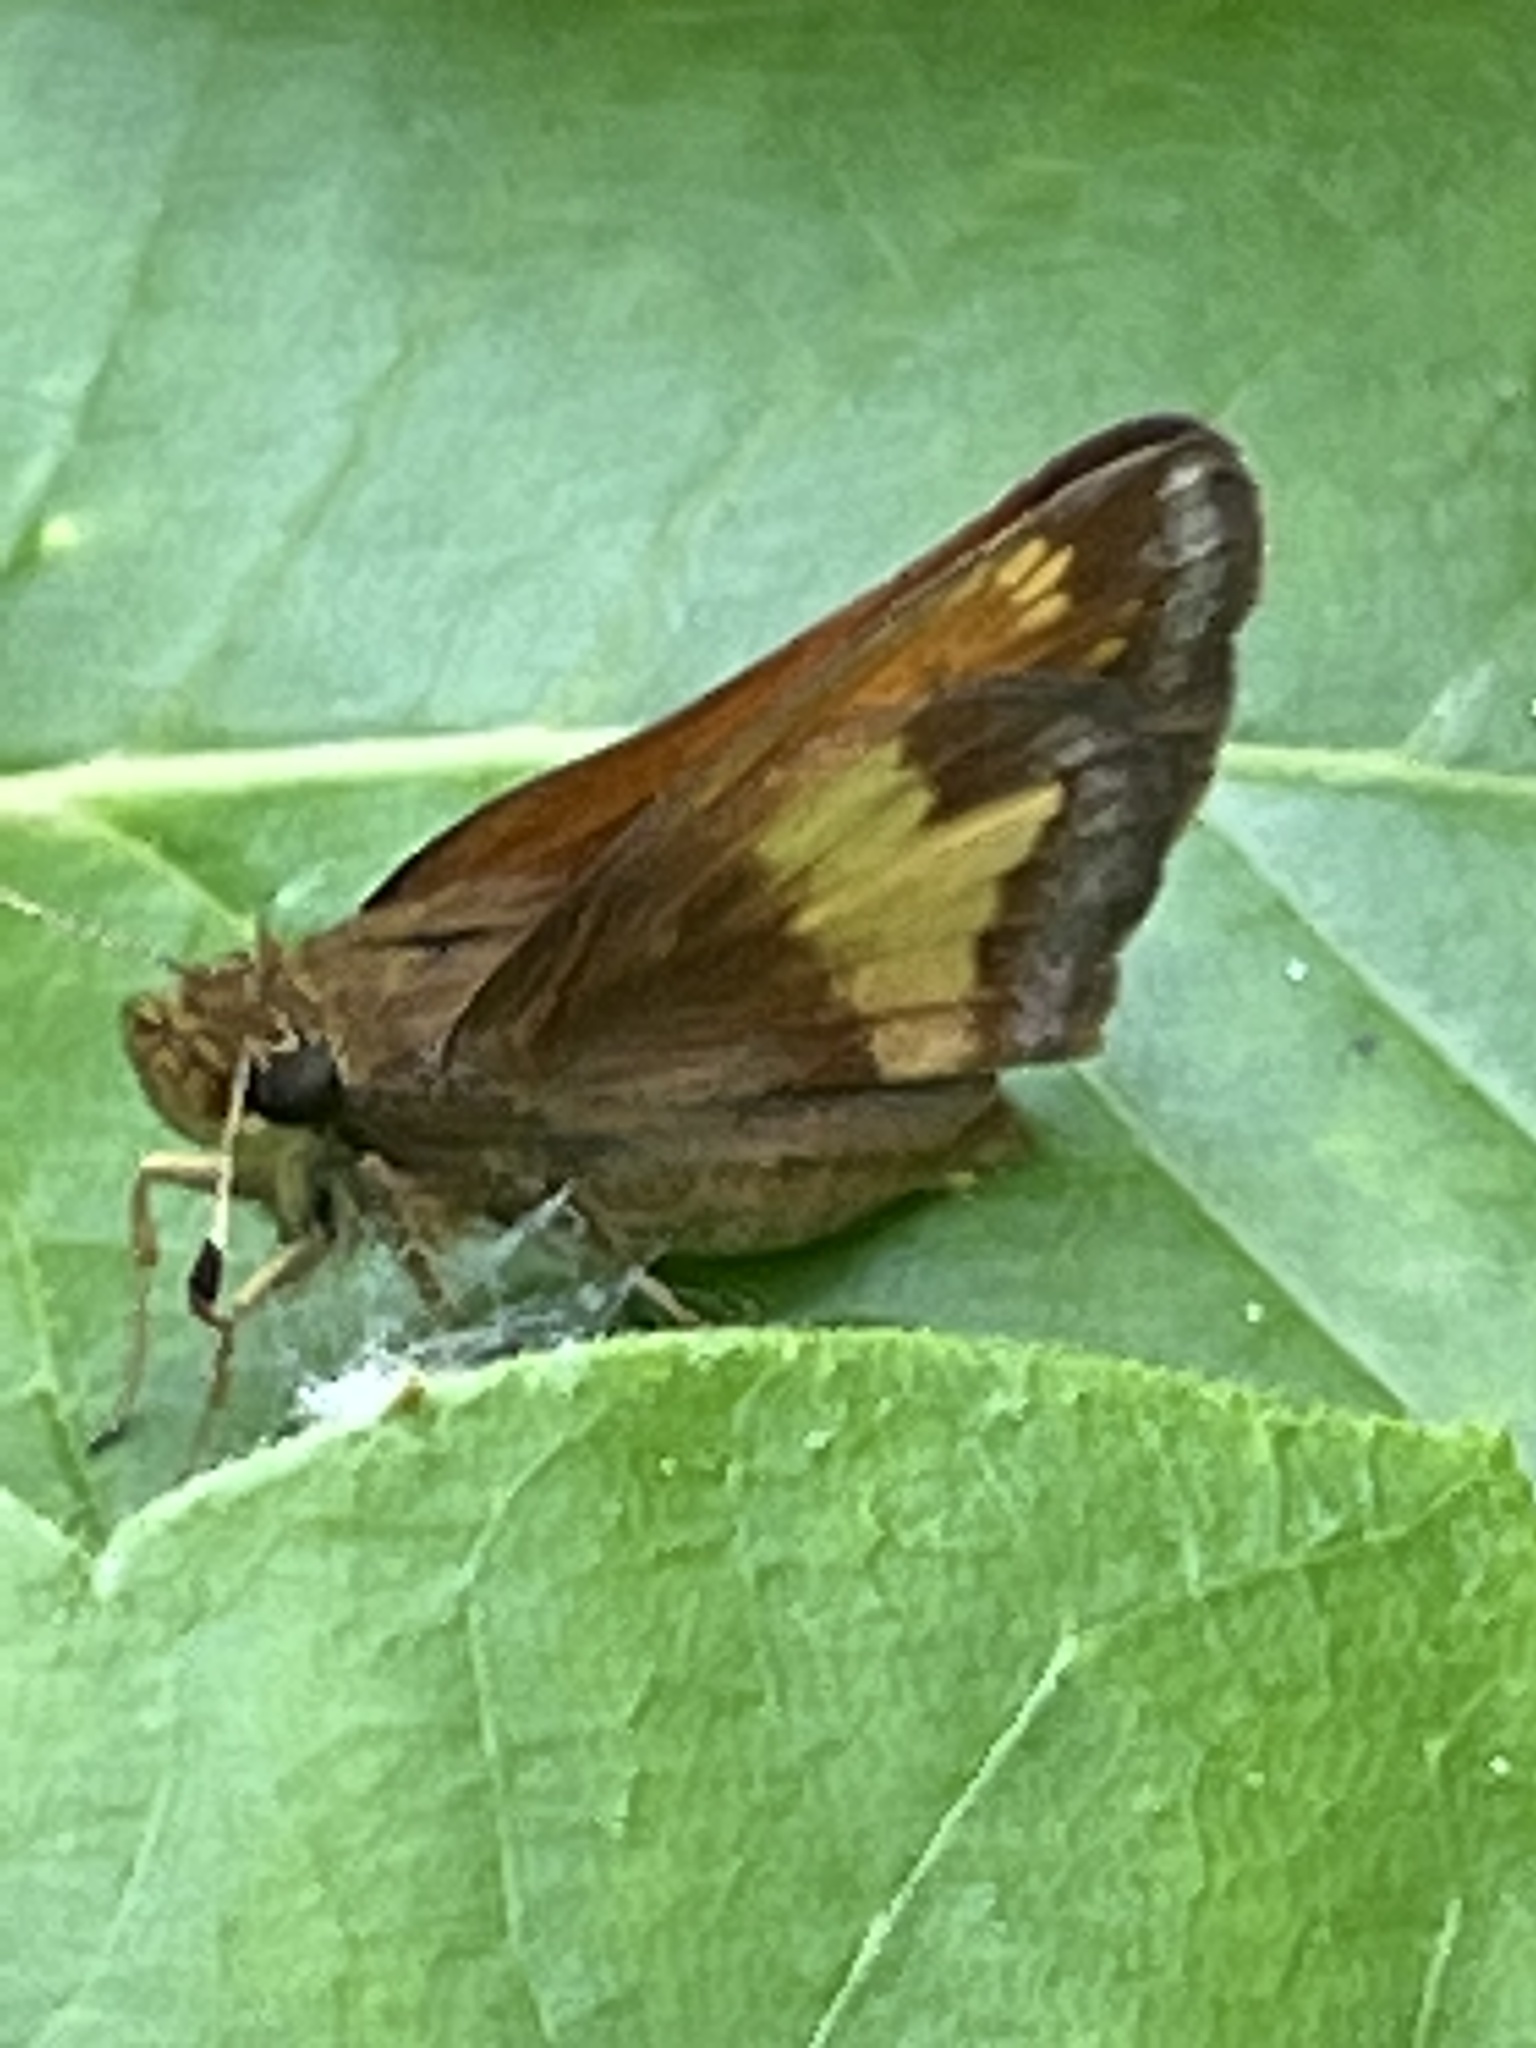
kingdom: Animalia
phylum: Arthropoda
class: Insecta
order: Lepidoptera
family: Hesperiidae
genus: Lon
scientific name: Lon hobomok
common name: Hobomok skipper
